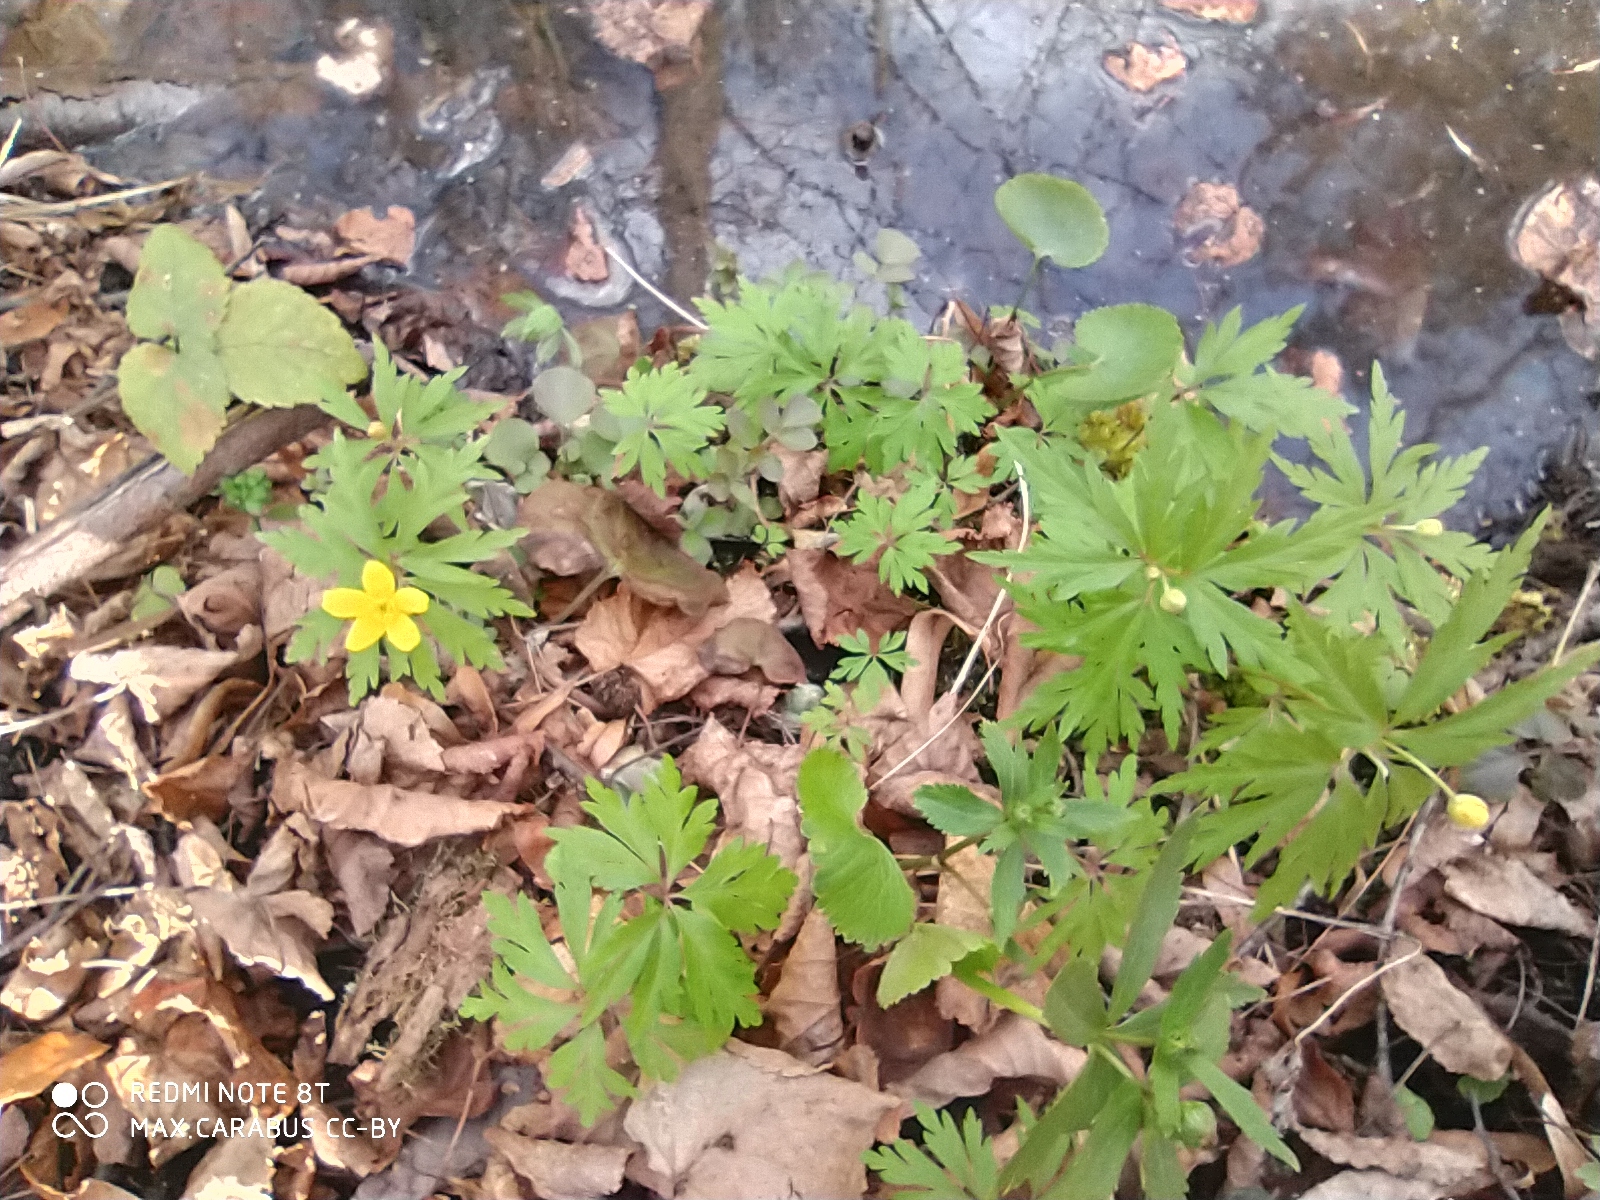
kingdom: Plantae
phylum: Tracheophyta
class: Magnoliopsida
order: Ranunculales
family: Ranunculaceae
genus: Anemone
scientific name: Anemone ranunculoides
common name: Yellow anemone
